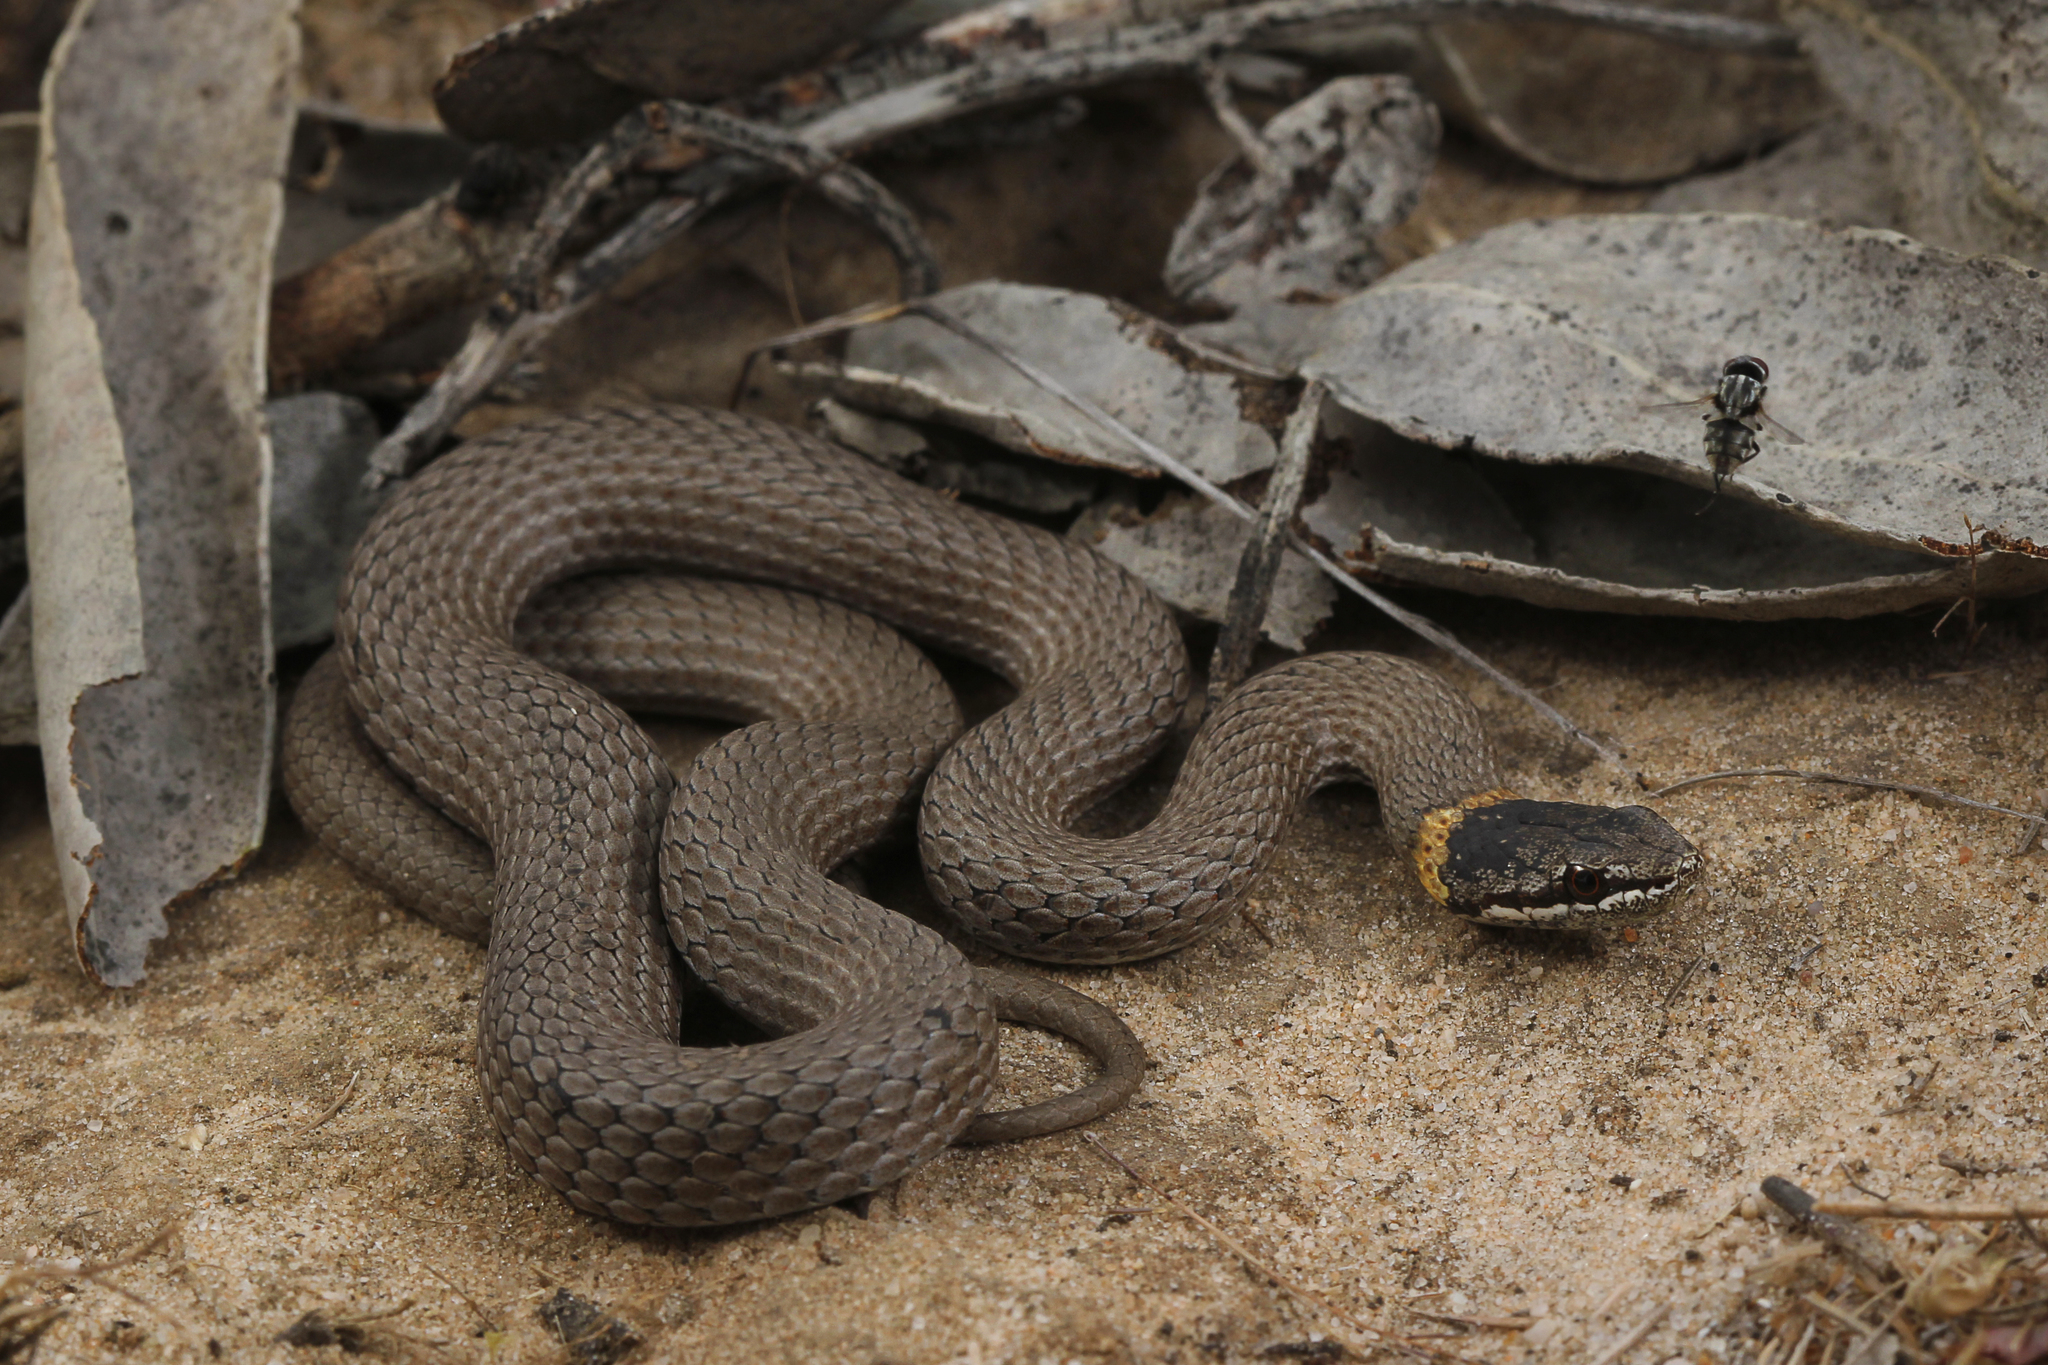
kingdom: Animalia
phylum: Chordata
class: Squamata
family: Elapidae
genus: Drysdalia
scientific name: Drysdalia mastersii
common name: Master's snake
